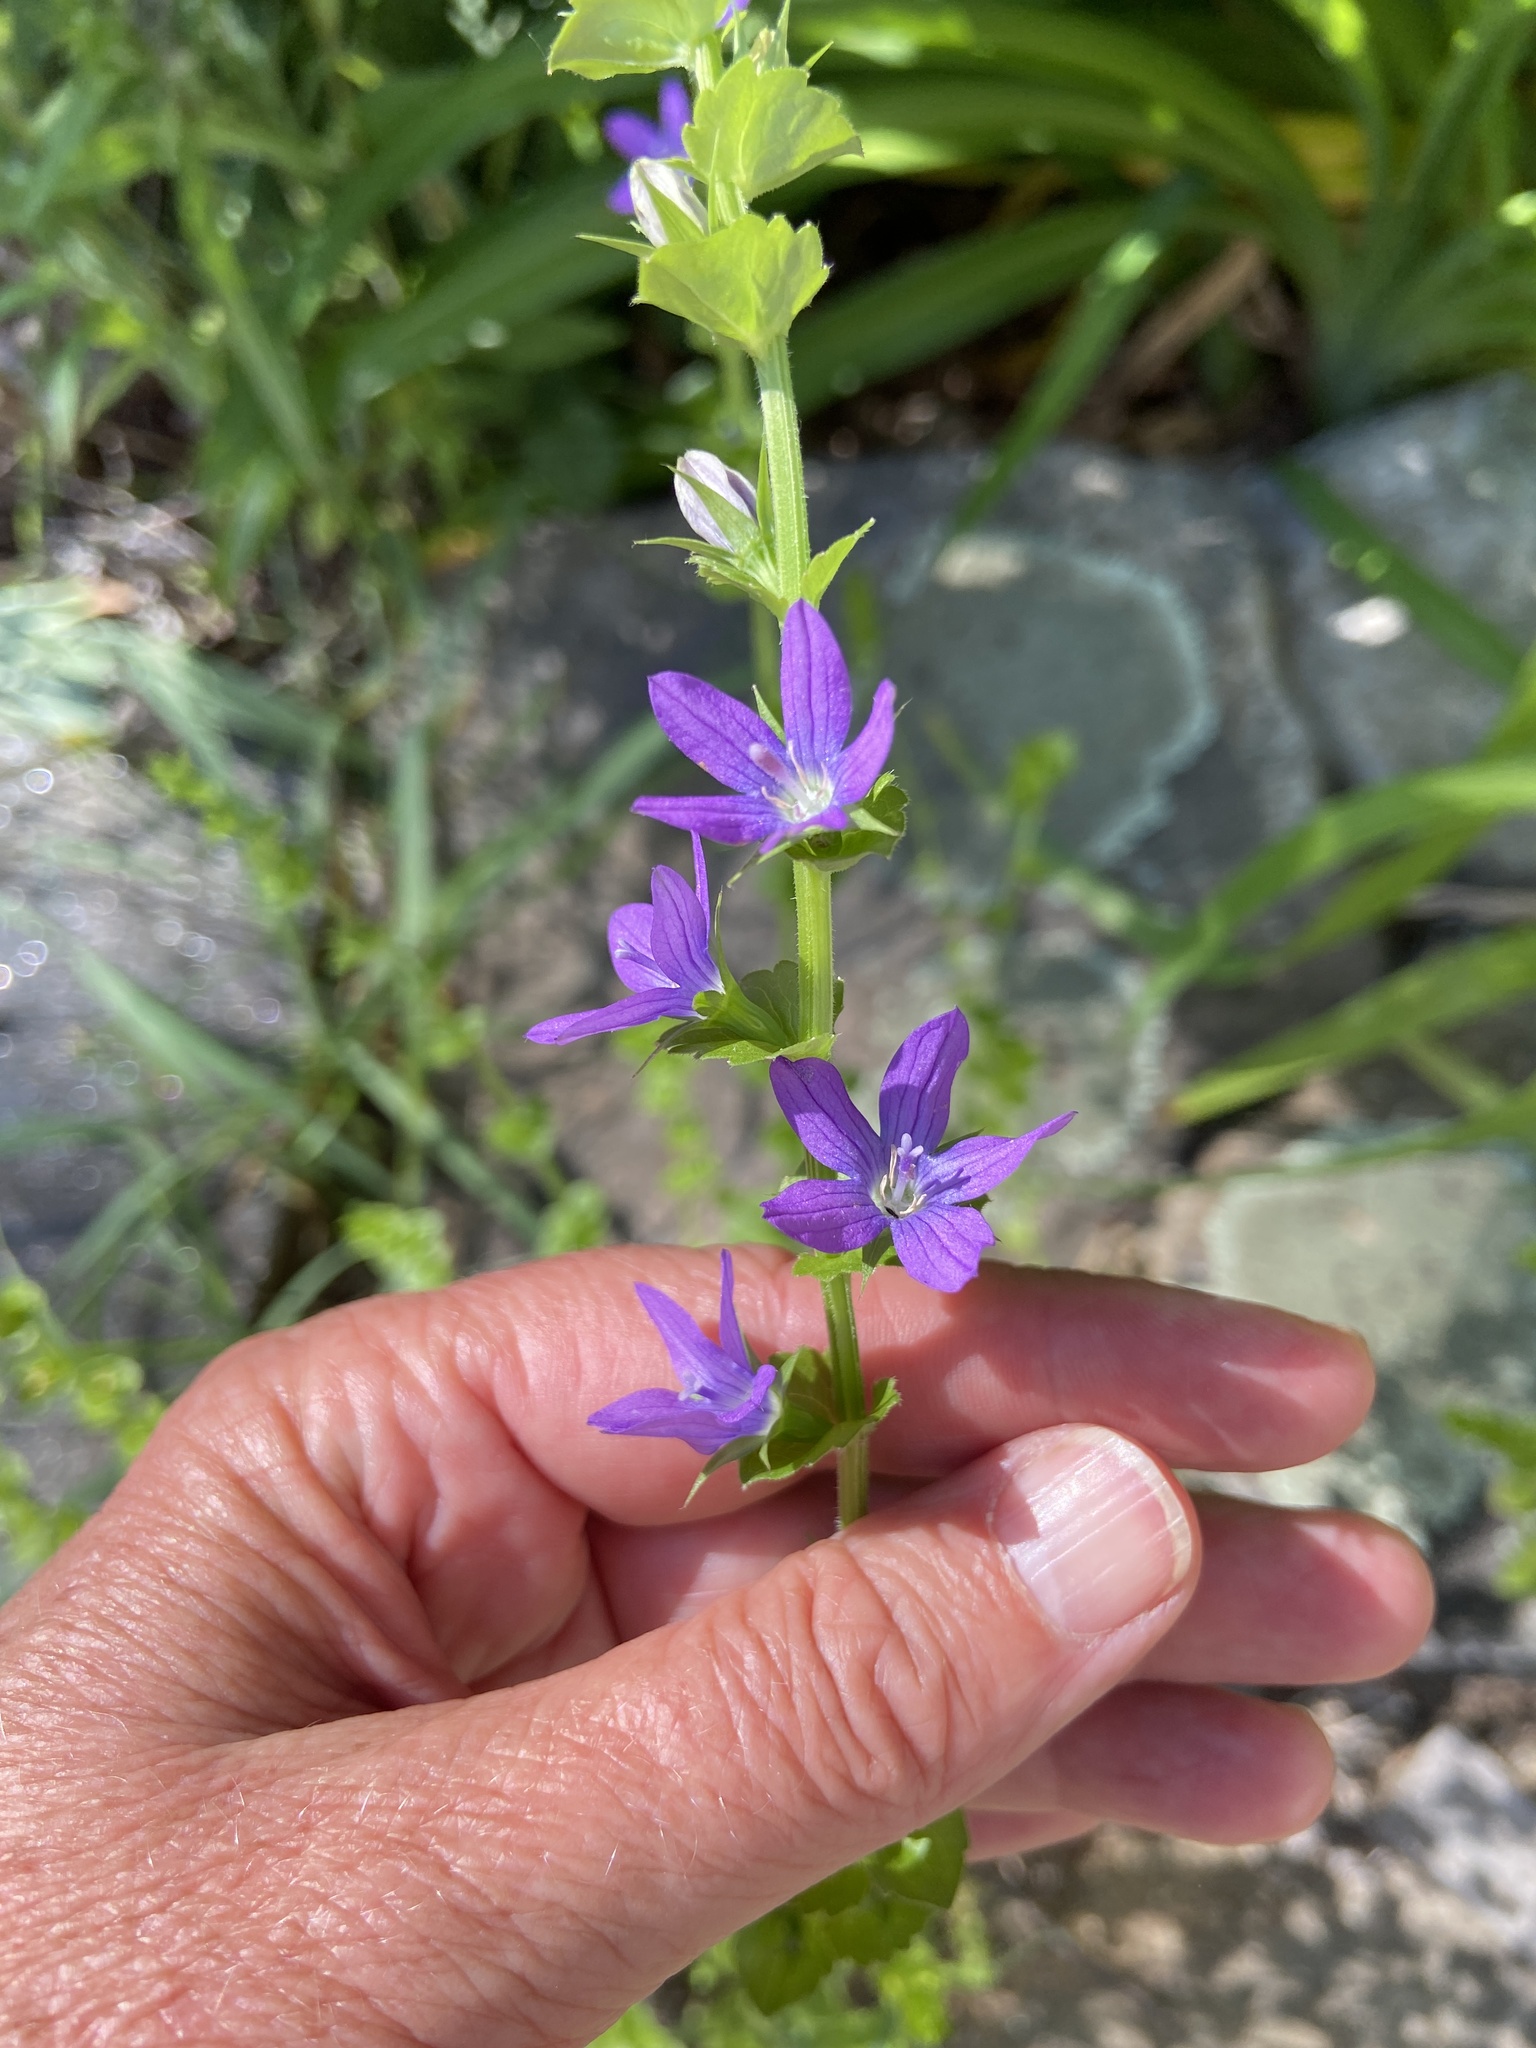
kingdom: Plantae
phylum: Tracheophyta
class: Magnoliopsida
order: Asterales
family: Campanulaceae
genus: Triodanis
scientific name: Triodanis perfoliata
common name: Clasping venus' looking-glass
